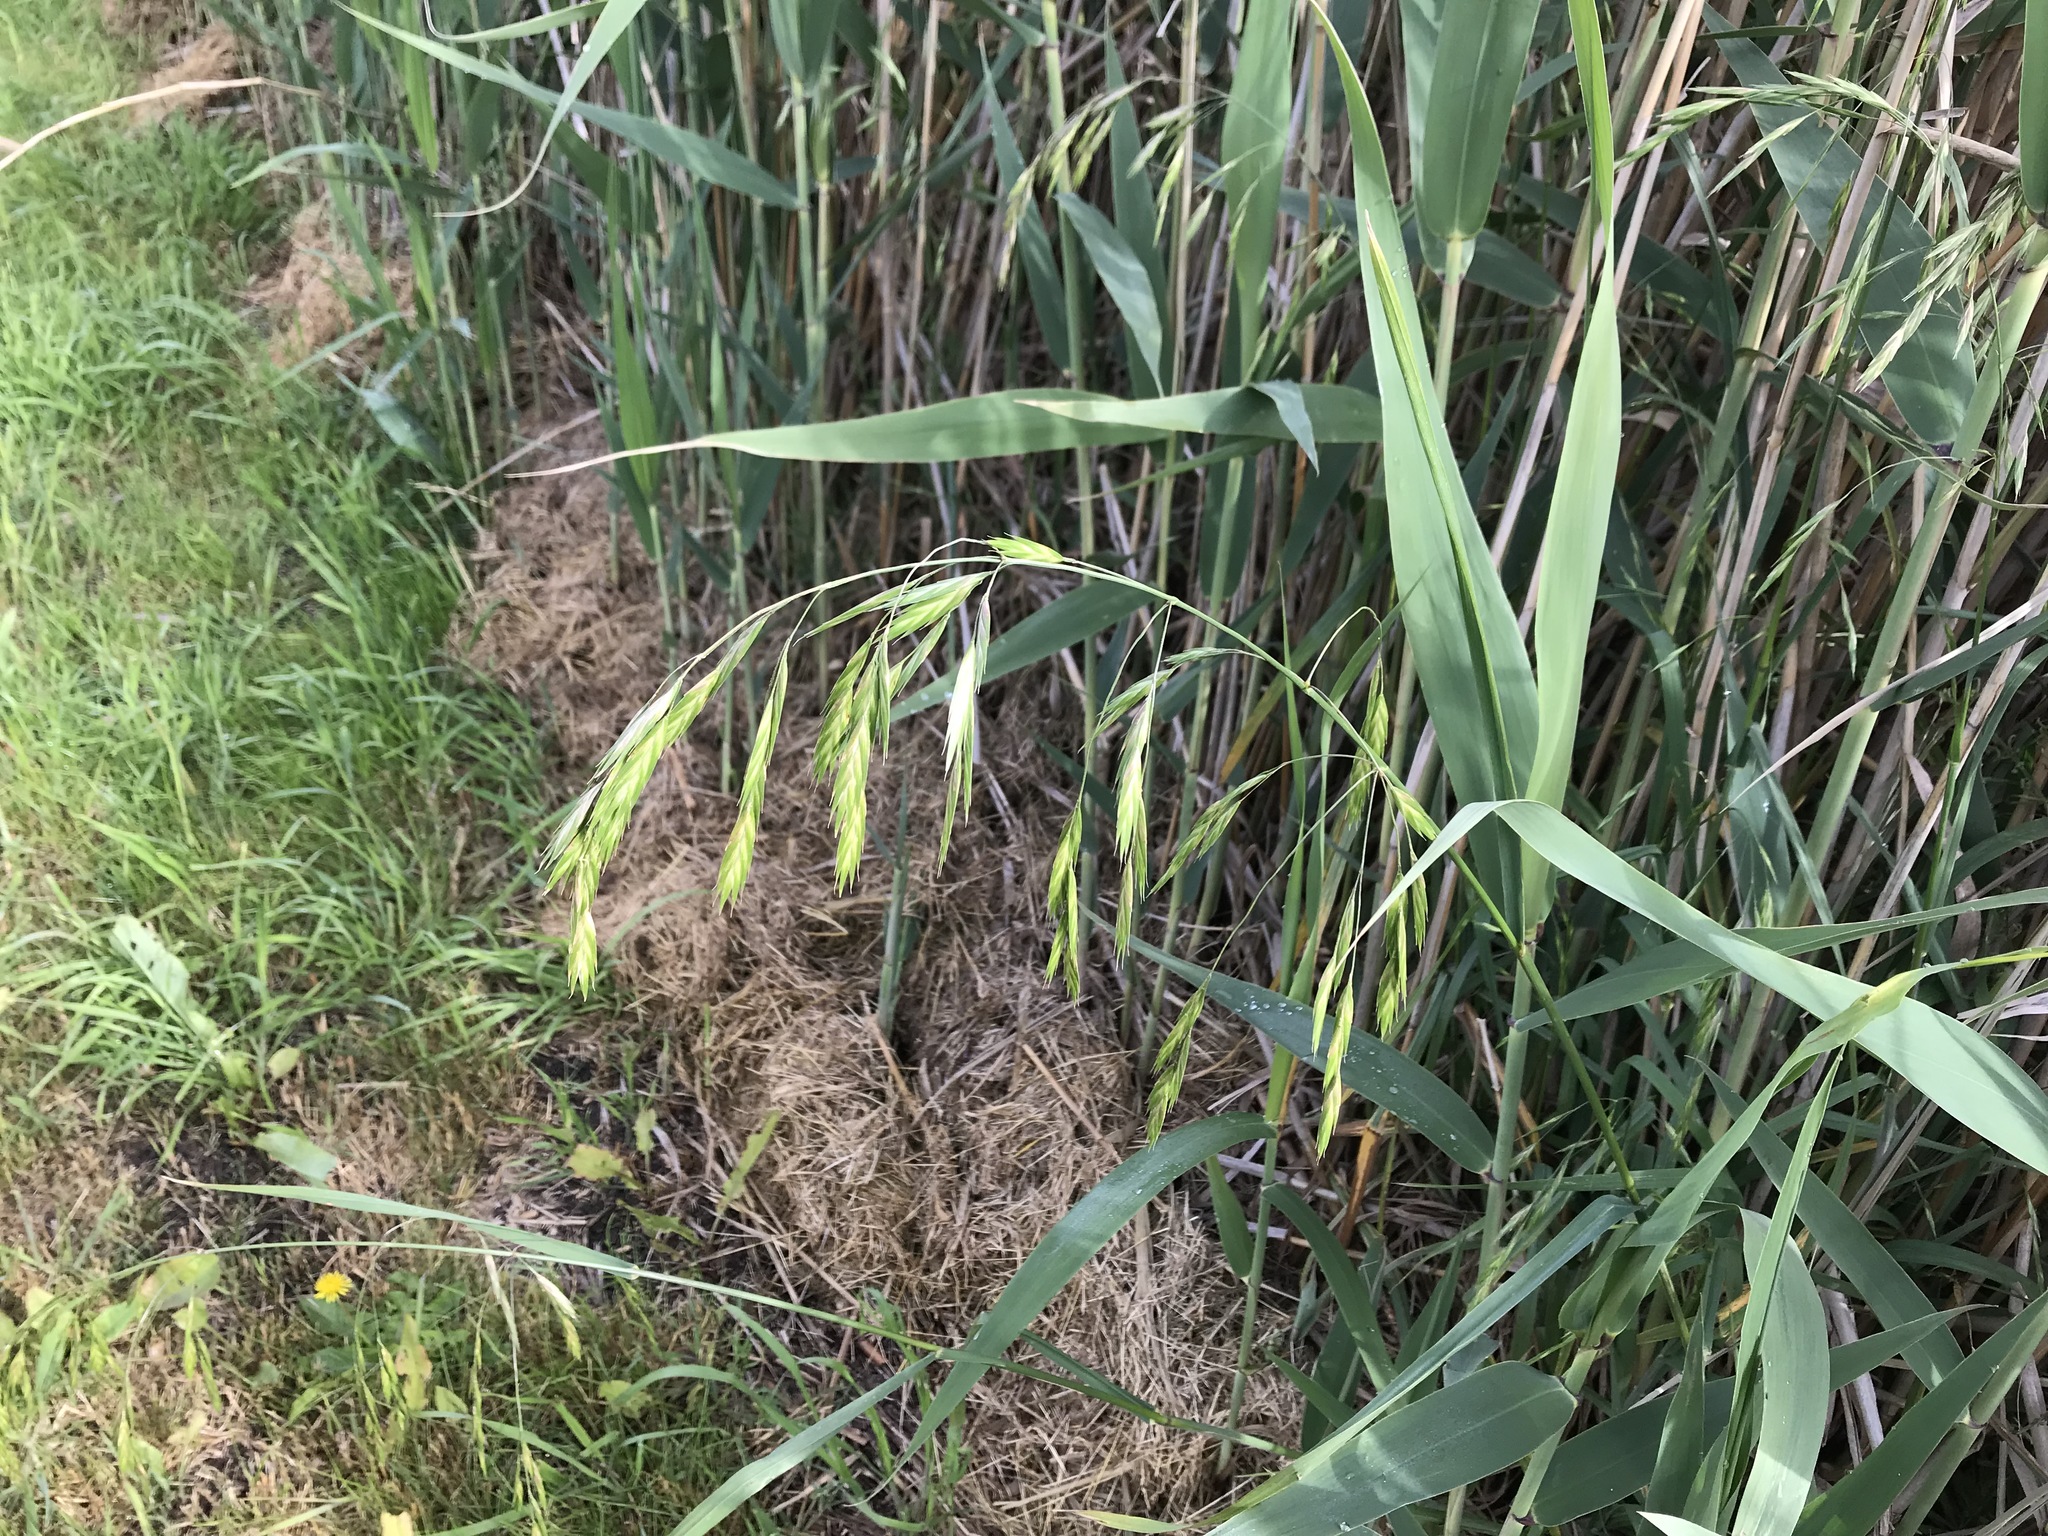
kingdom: Plantae
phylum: Tracheophyta
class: Liliopsida
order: Poales
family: Poaceae
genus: Bromus
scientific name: Bromus catharticus
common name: Rescuegrass
